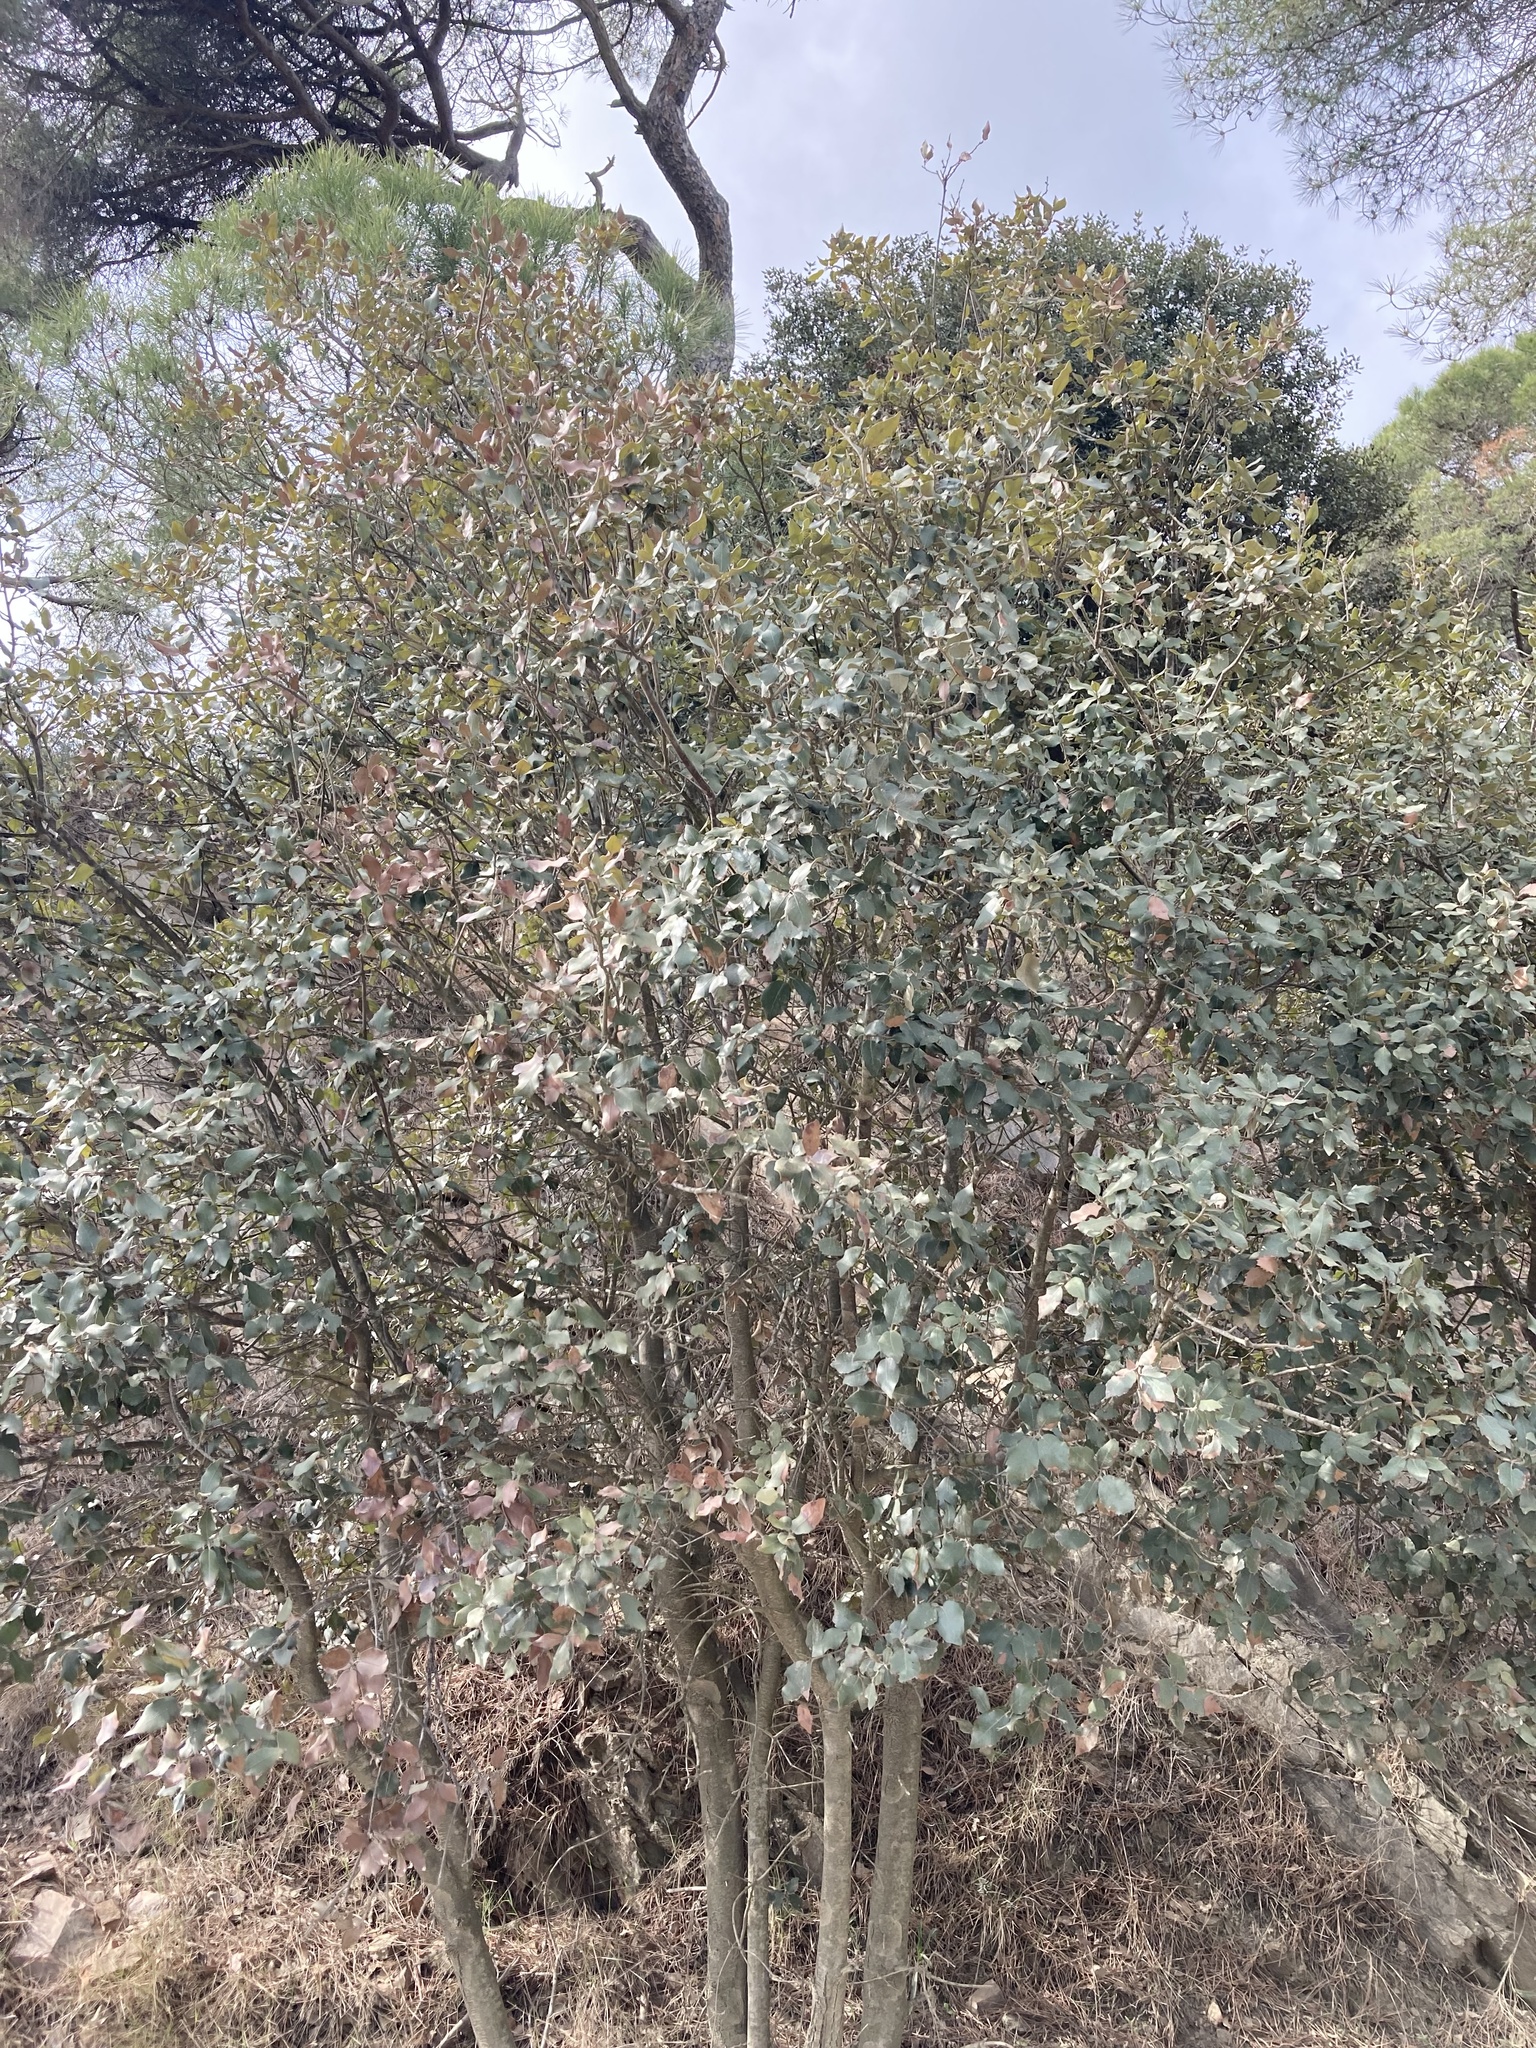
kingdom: Plantae
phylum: Tracheophyta
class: Magnoliopsida
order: Fagales
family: Fagaceae
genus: Quercus
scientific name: Quercus rotundifolia
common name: Holm oak
